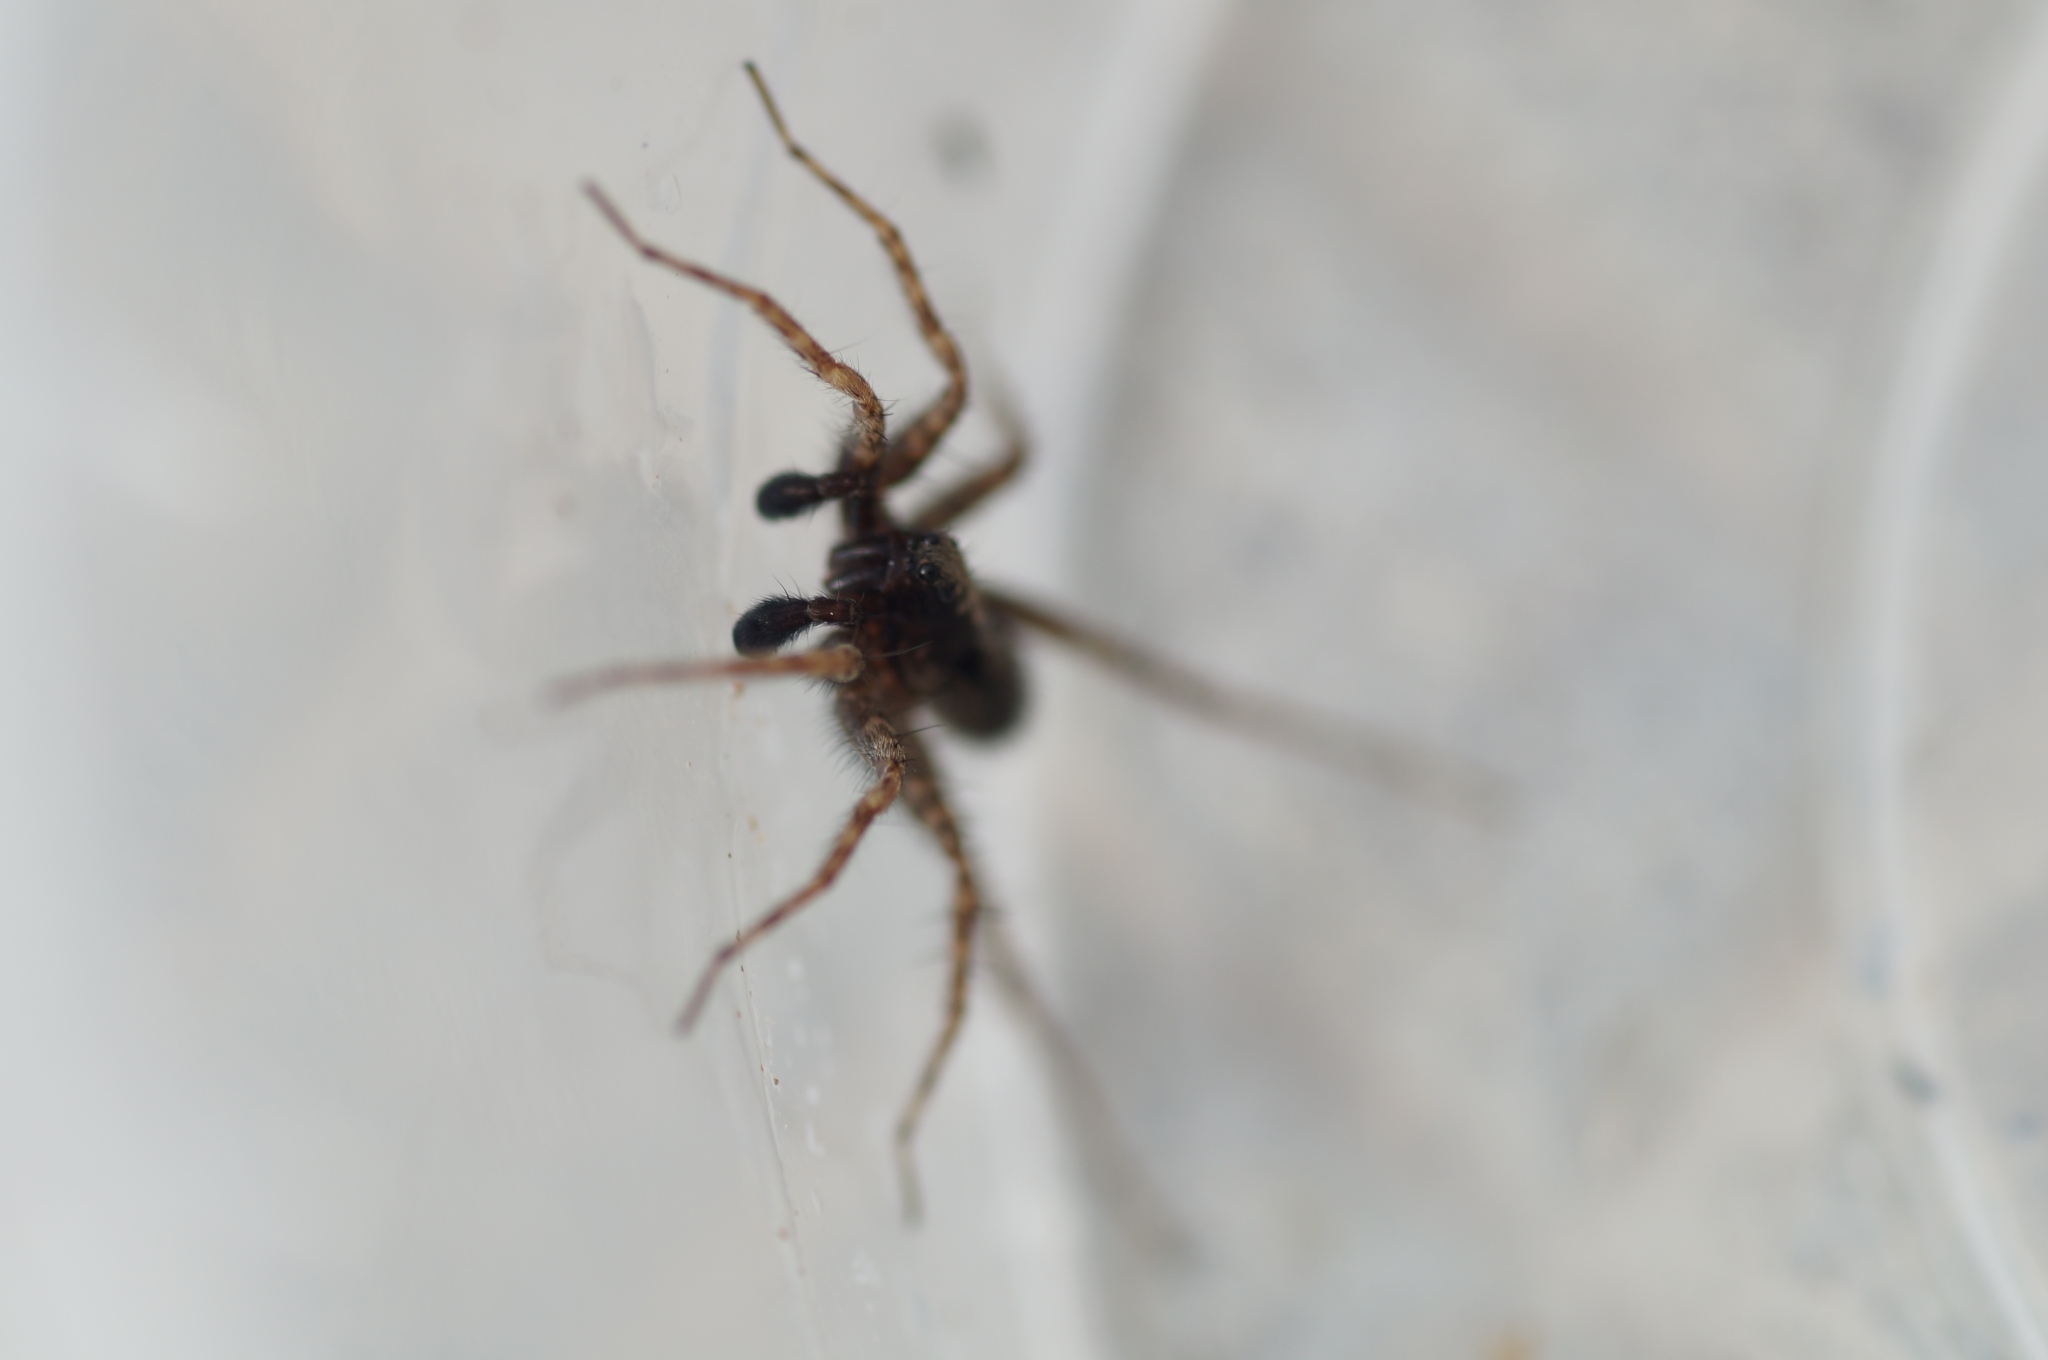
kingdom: Animalia
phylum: Arthropoda
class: Arachnida
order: Araneae
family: Lycosidae
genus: Pardosa
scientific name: Pardosa amentata
